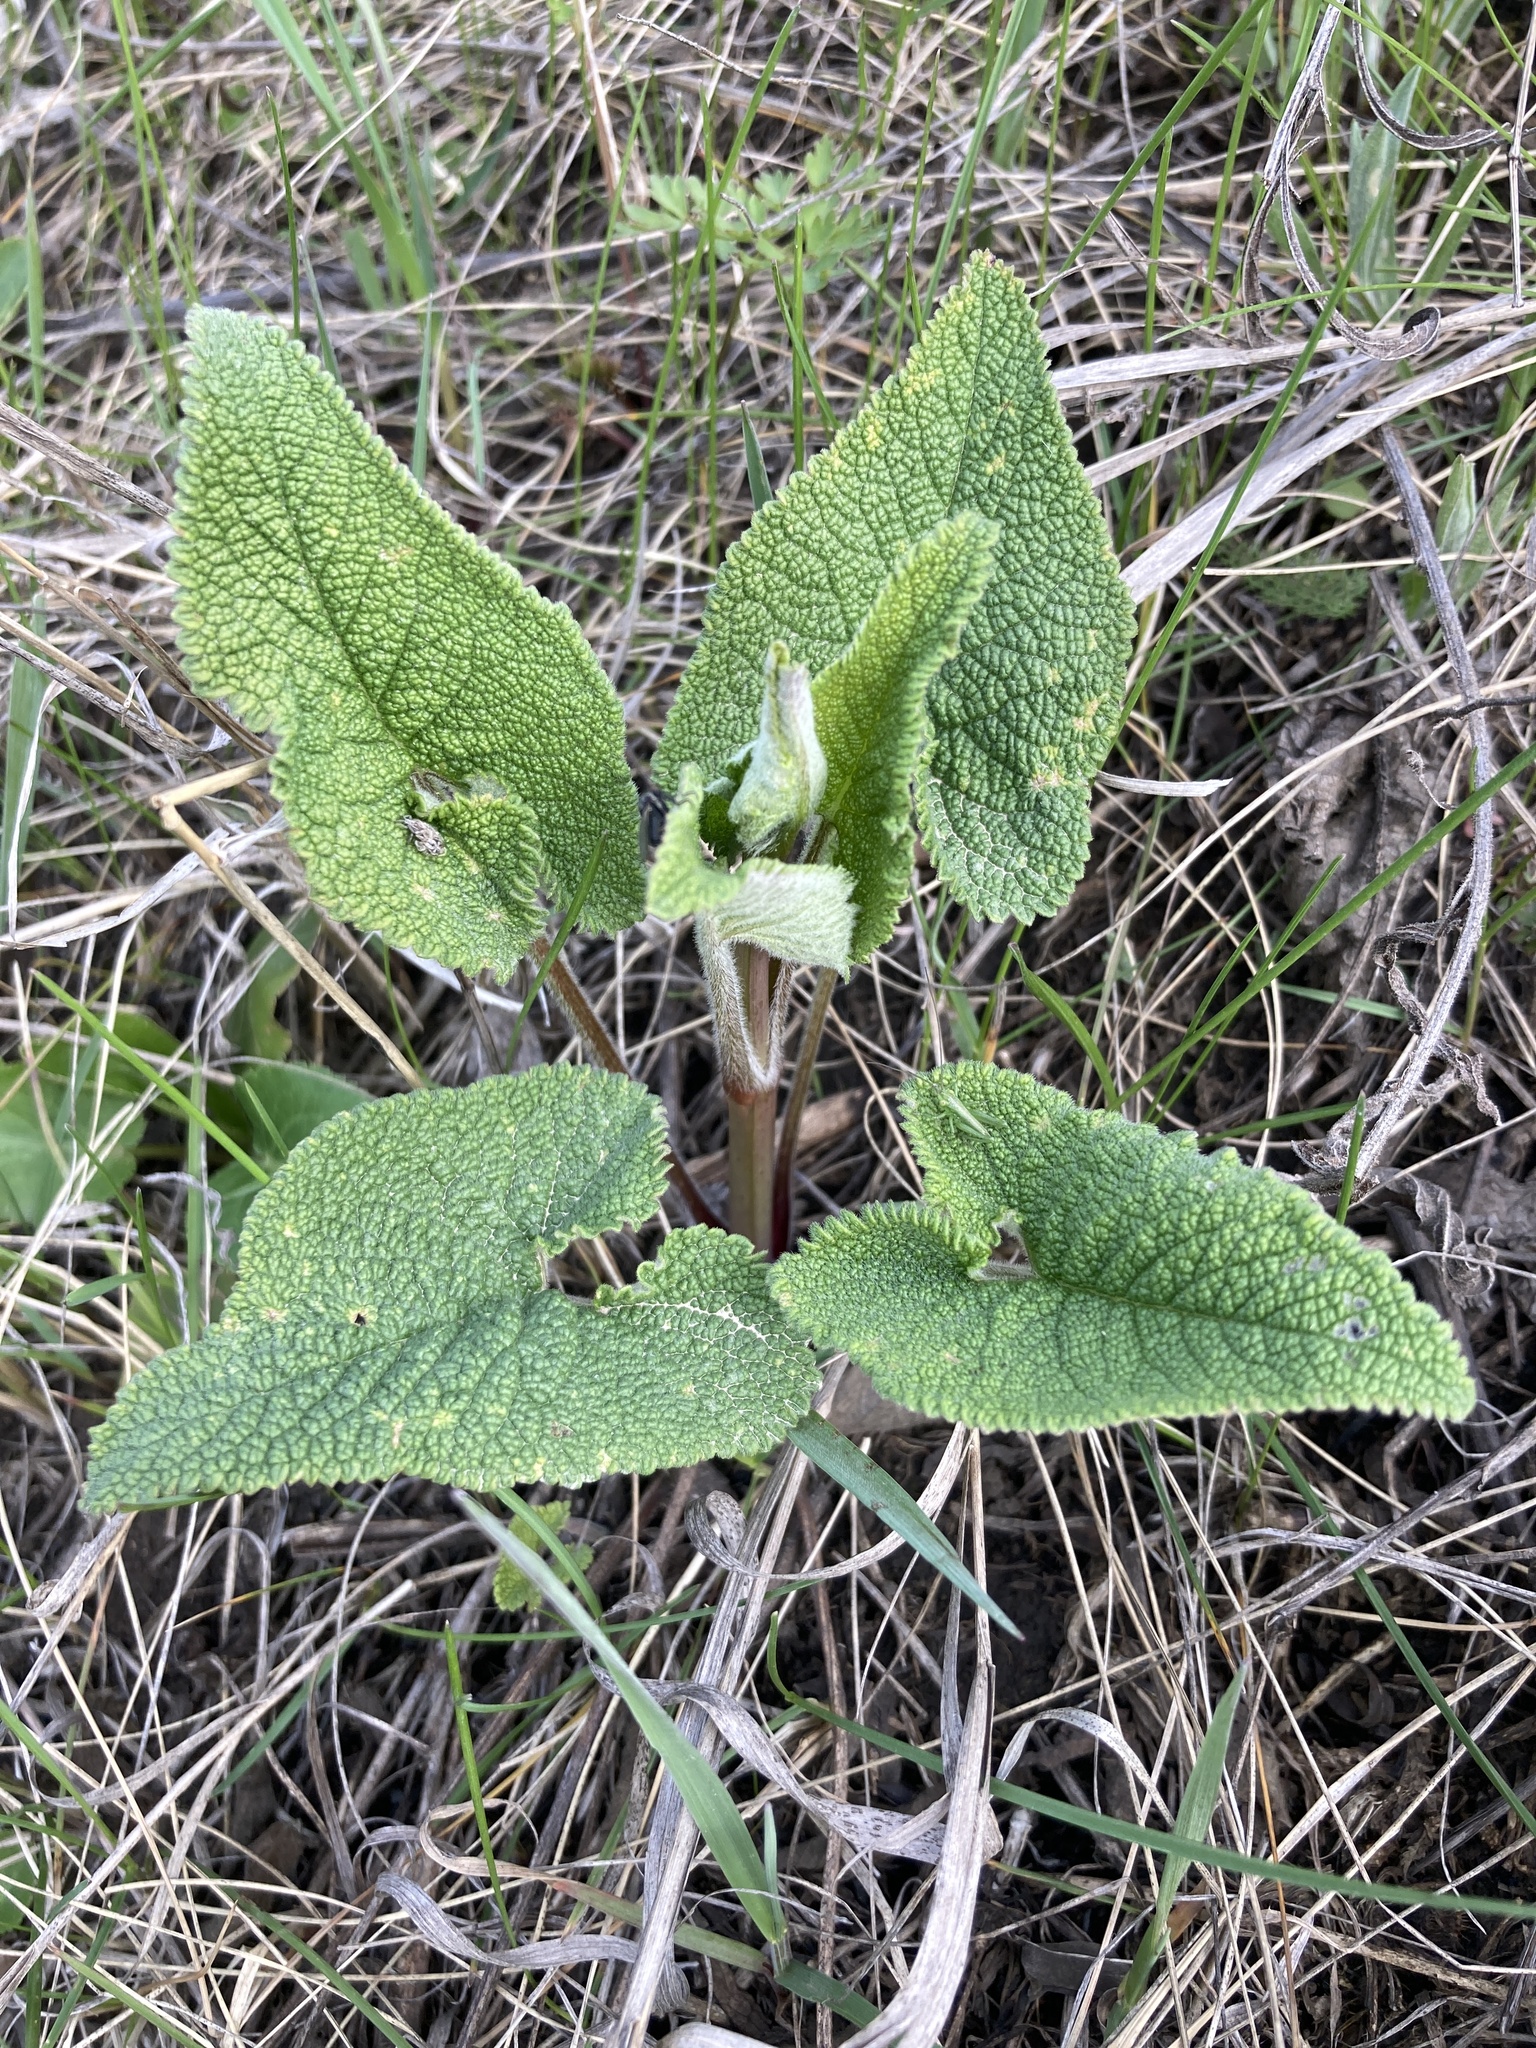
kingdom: Plantae
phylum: Tracheophyta
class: Magnoliopsida
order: Lamiales
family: Lamiaceae
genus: Phlomoides
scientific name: Phlomoides tuberosa
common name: Tuberous jerusalem sage
